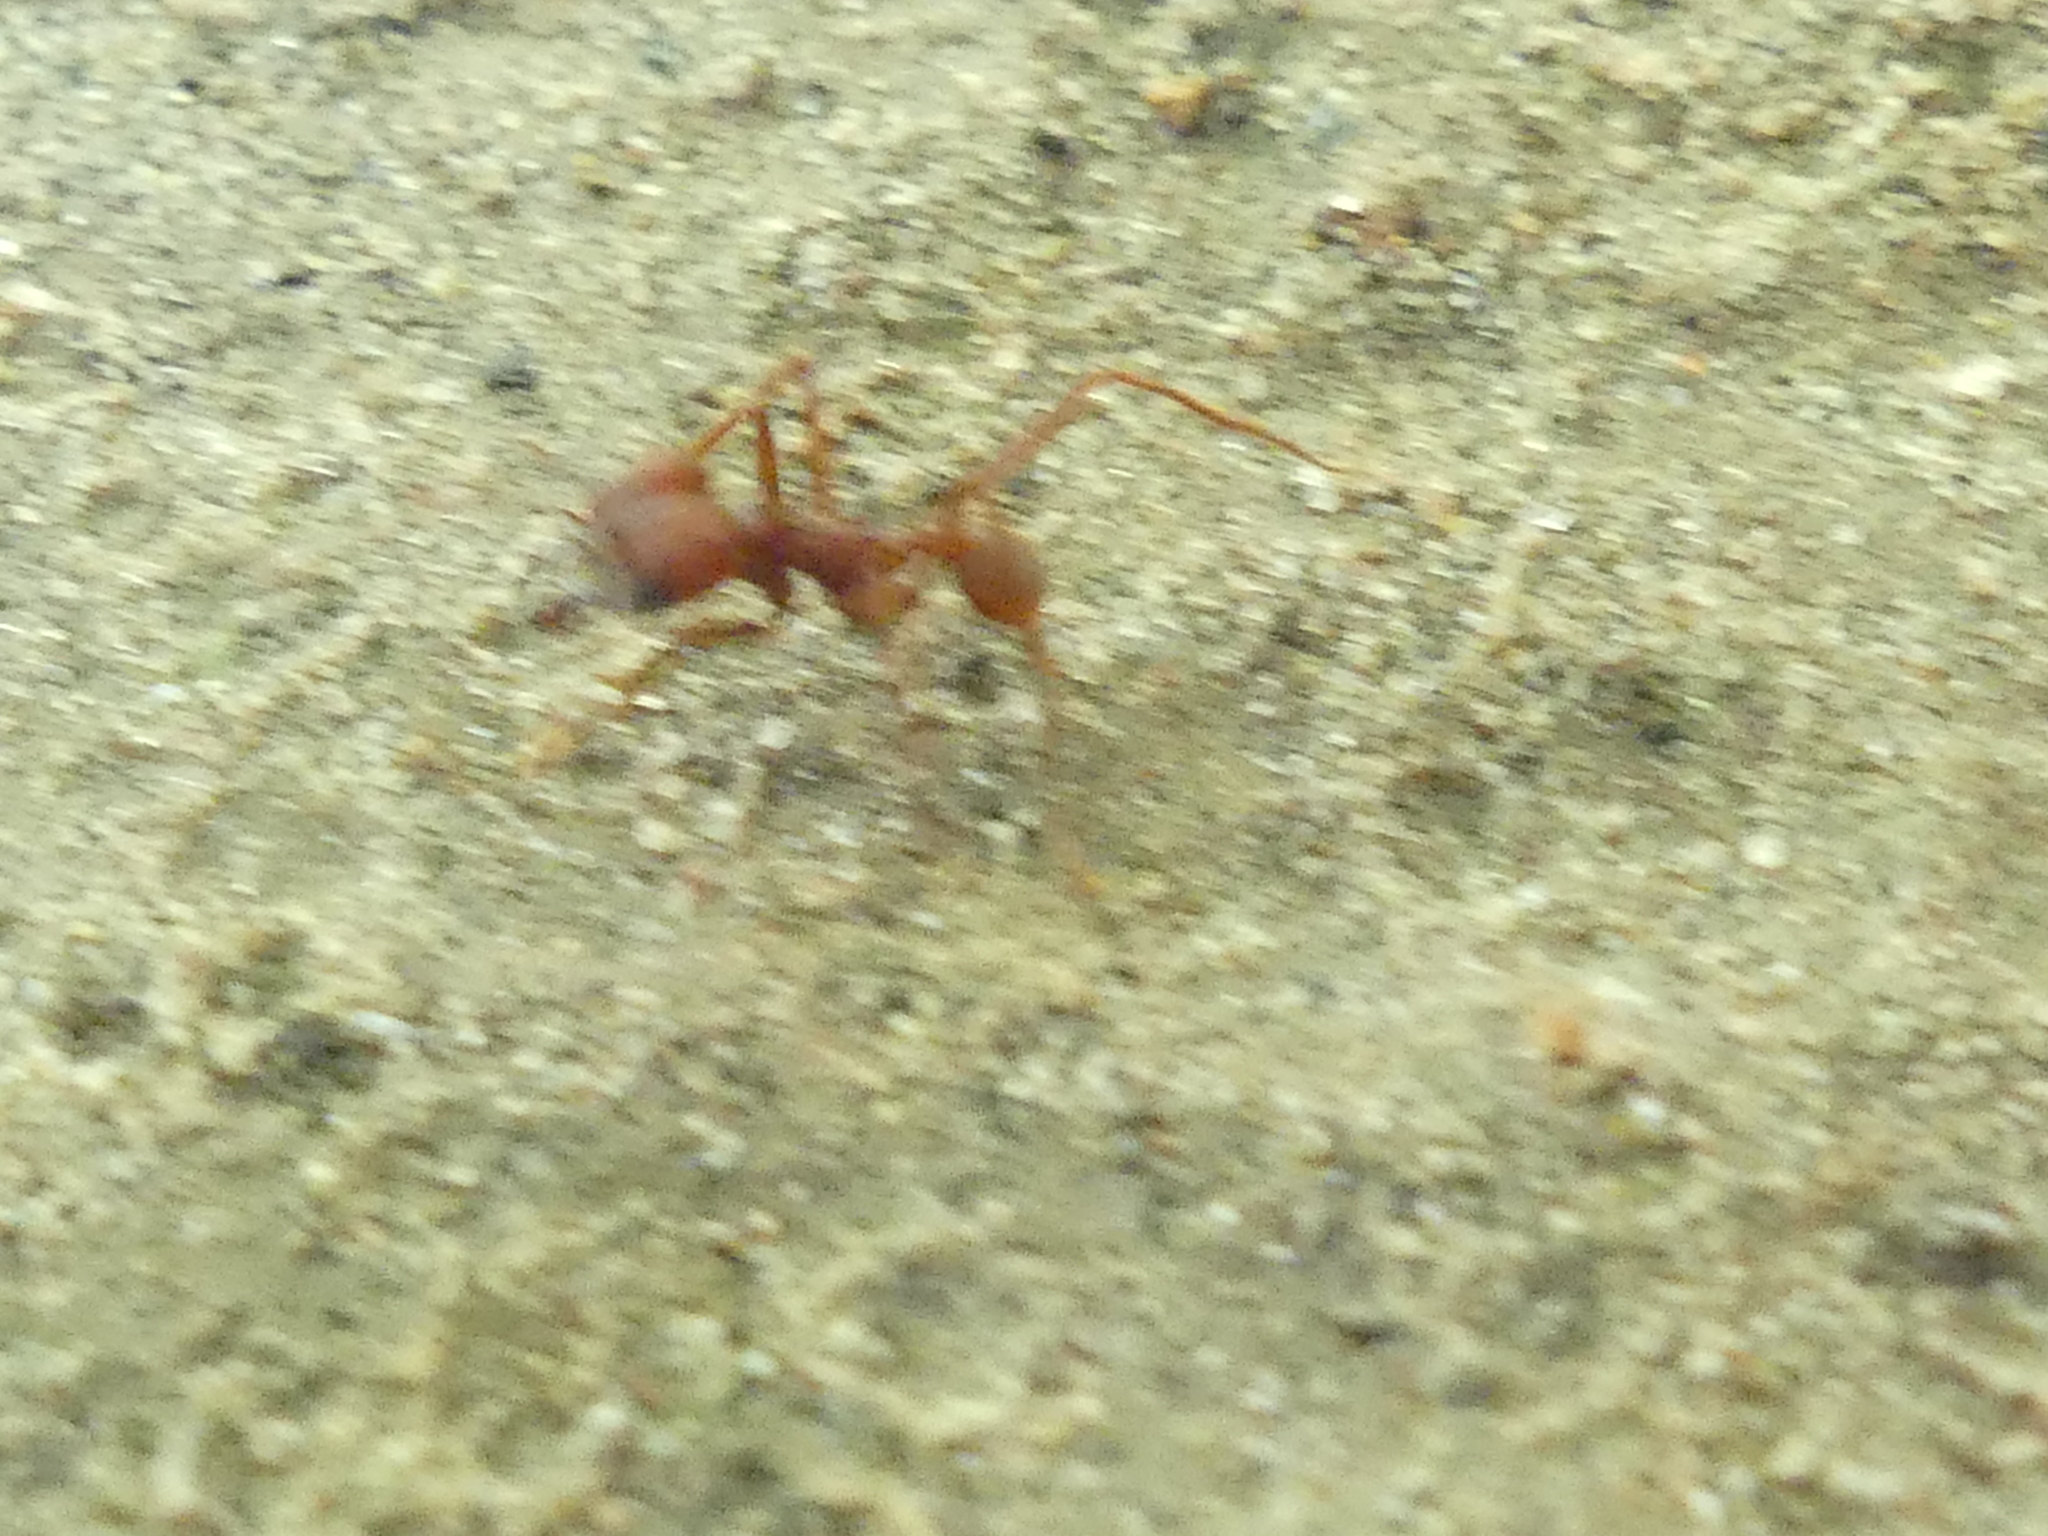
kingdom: Animalia
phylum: Arthropoda
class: Insecta
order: Hymenoptera
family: Formicidae
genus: Atta
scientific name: Atta texana
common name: Texas leafcutting ant
